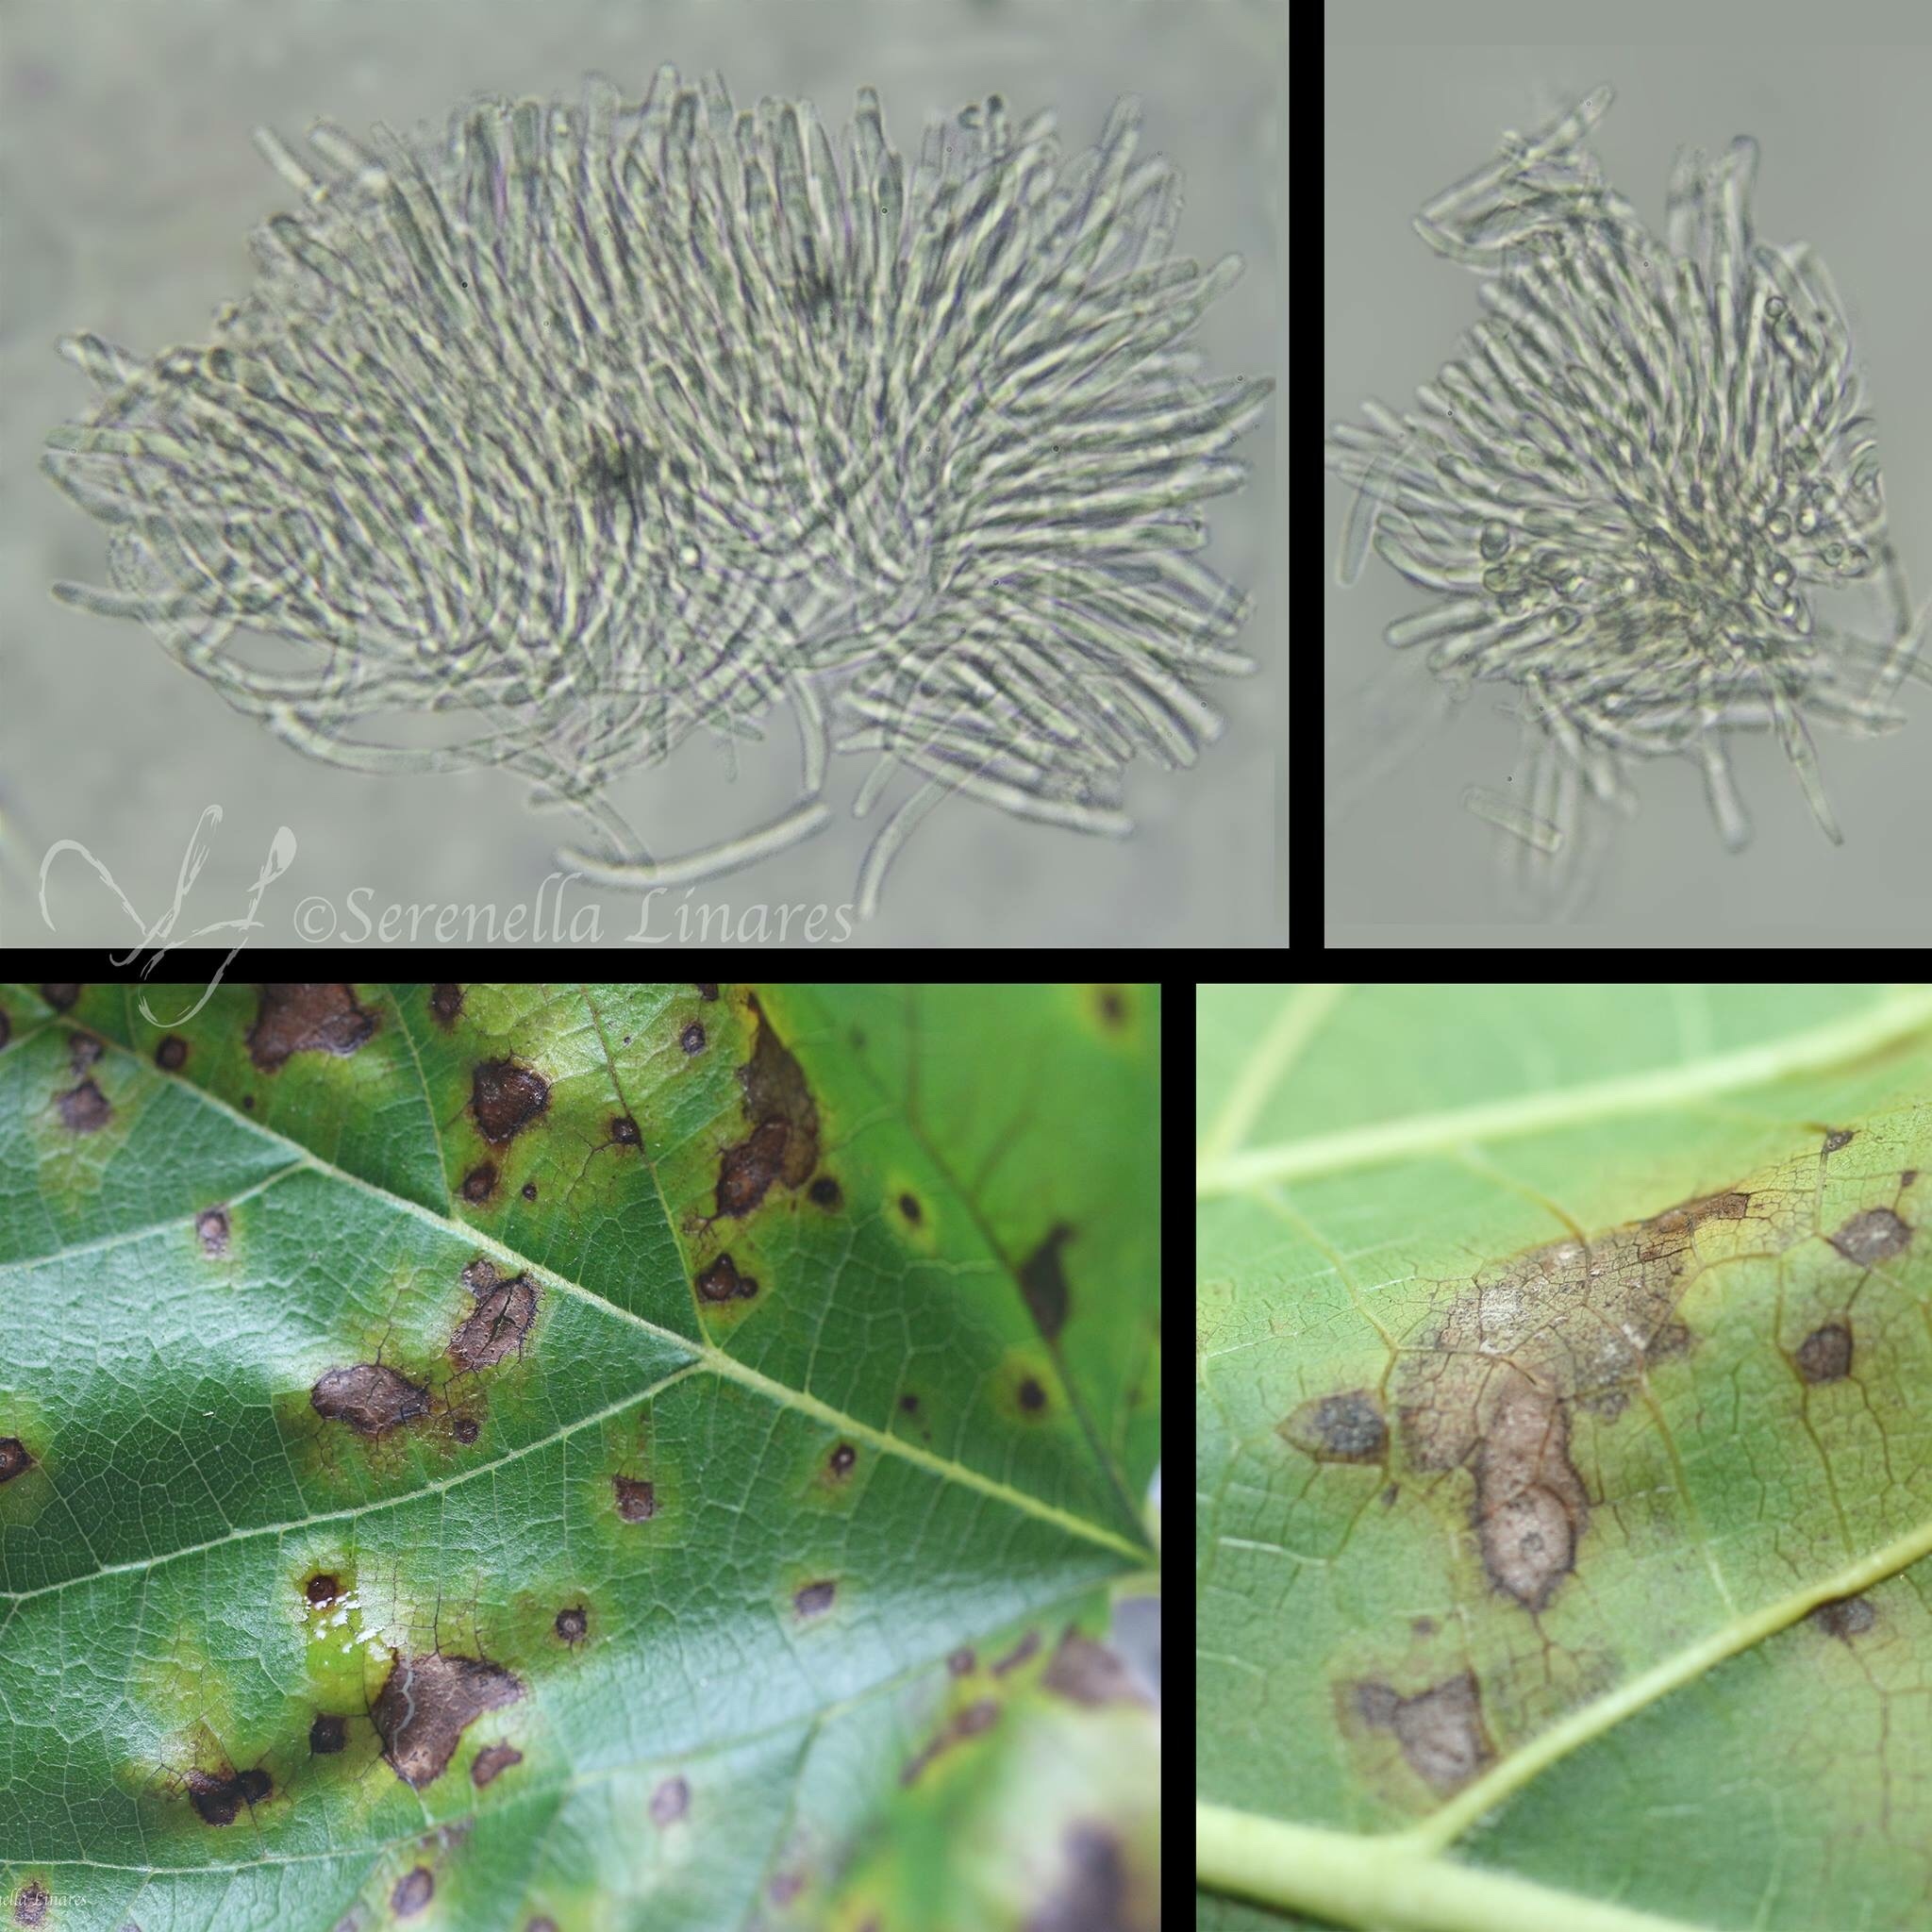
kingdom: Fungi
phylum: Ascomycota
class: Dothideomycetes
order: Mycosphaerellales
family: Mycosphaerellaceae
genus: Cercospora
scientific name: Cercospora moricola
